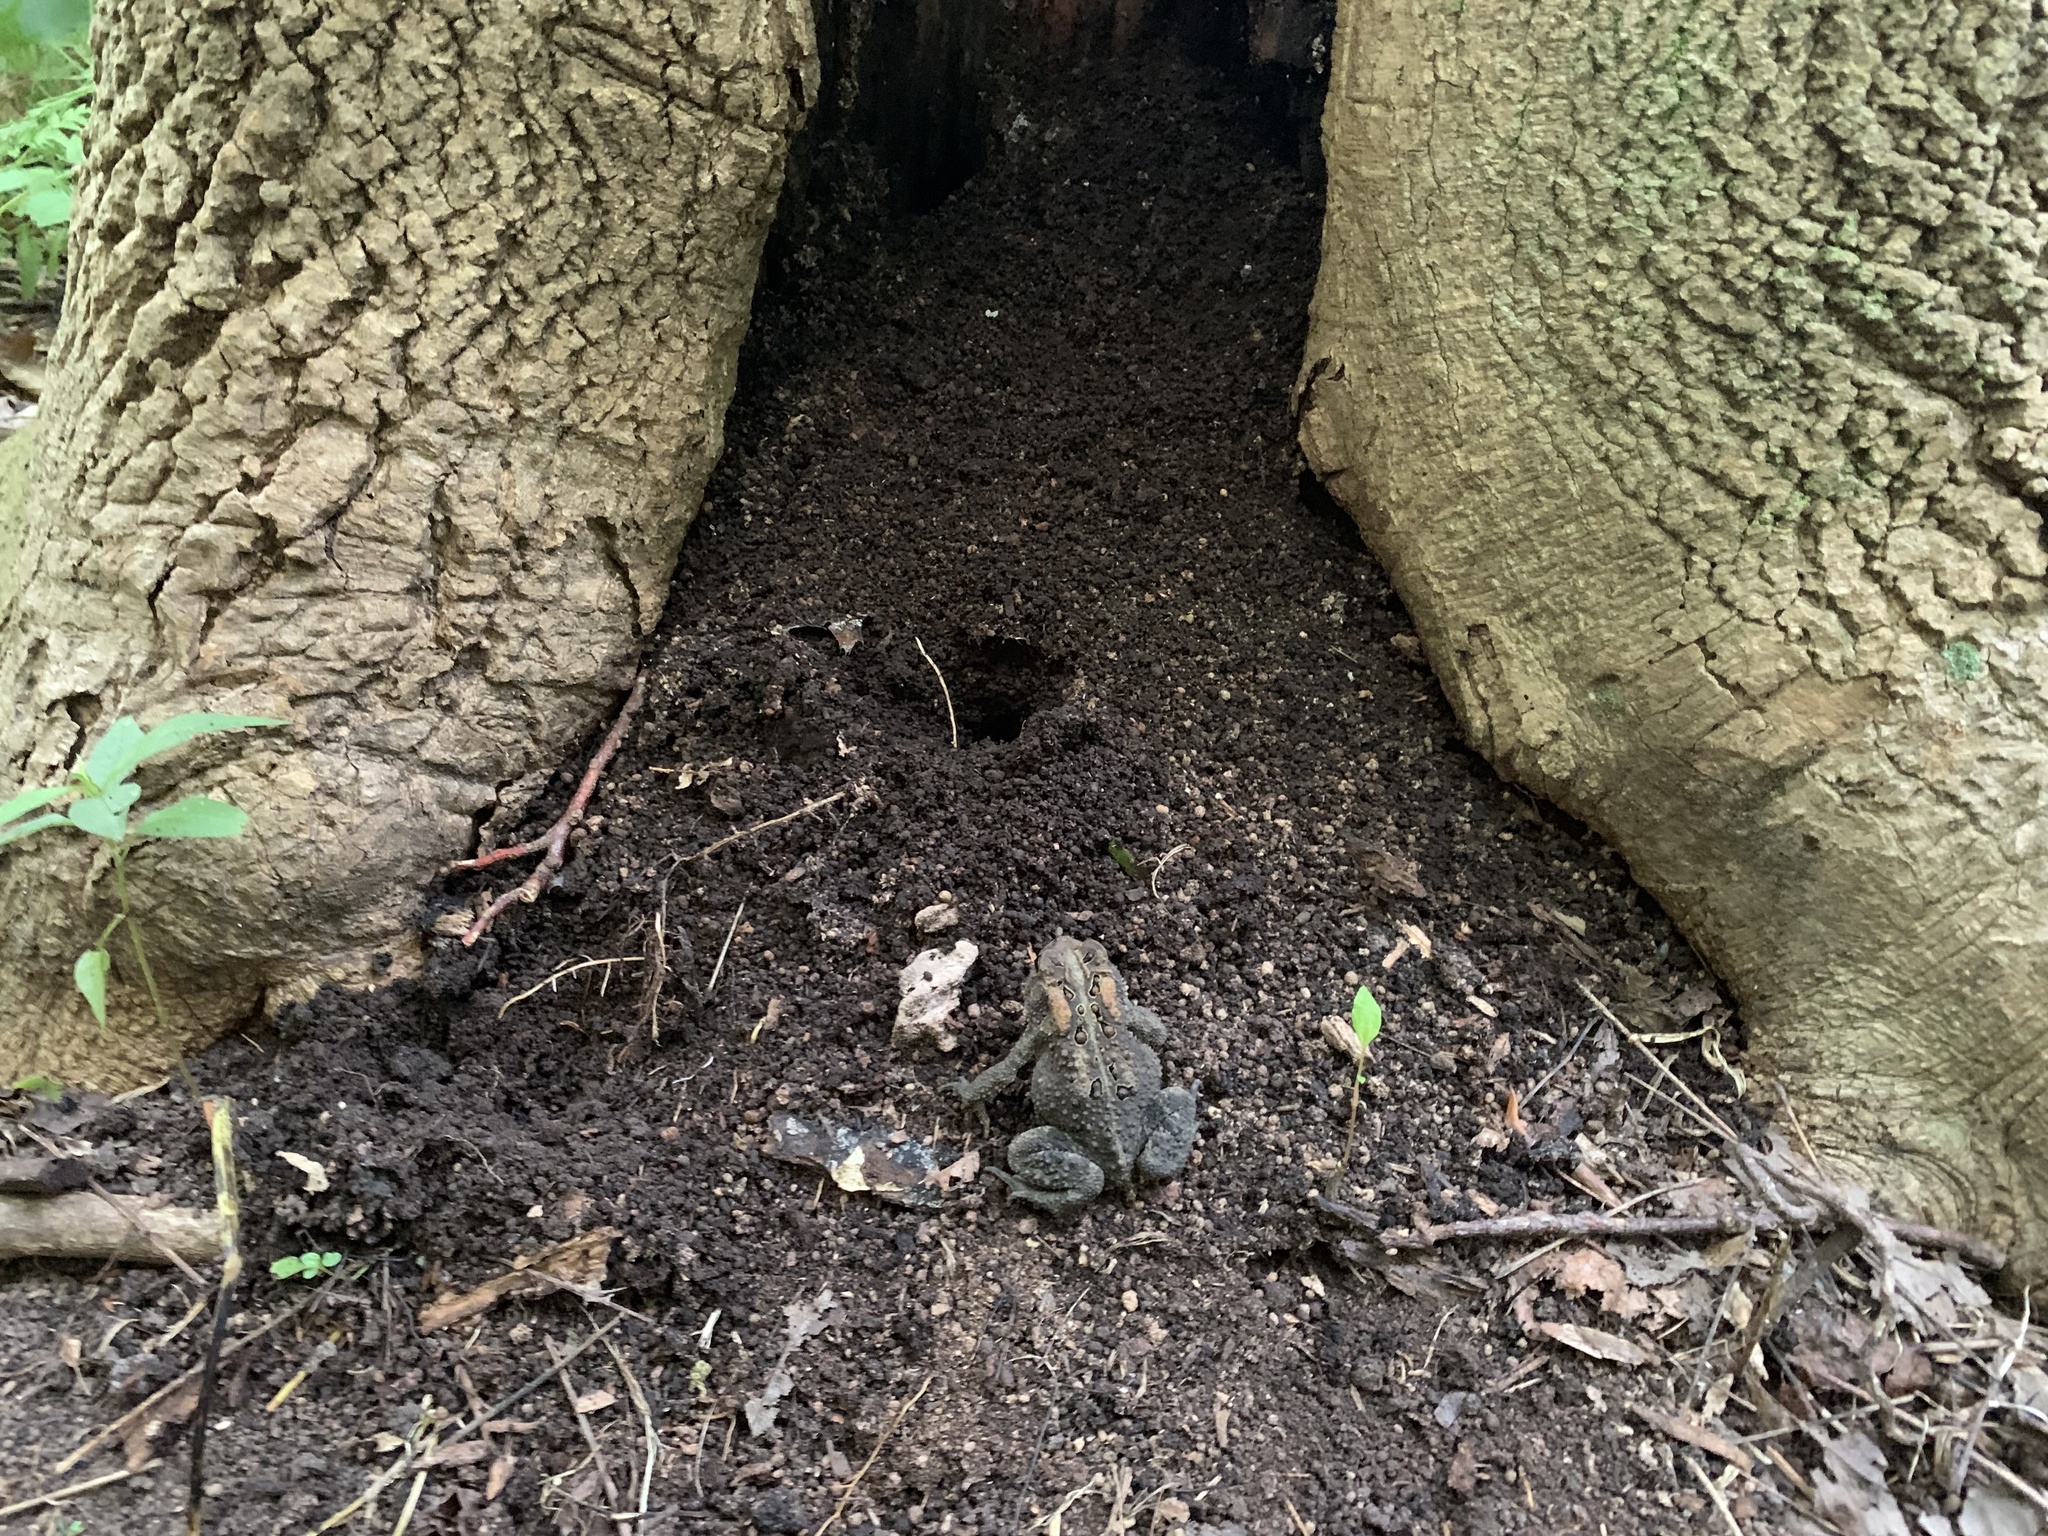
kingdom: Animalia
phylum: Chordata
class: Amphibia
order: Anura
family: Bufonidae
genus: Anaxyrus
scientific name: Anaxyrus americanus
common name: American toad
